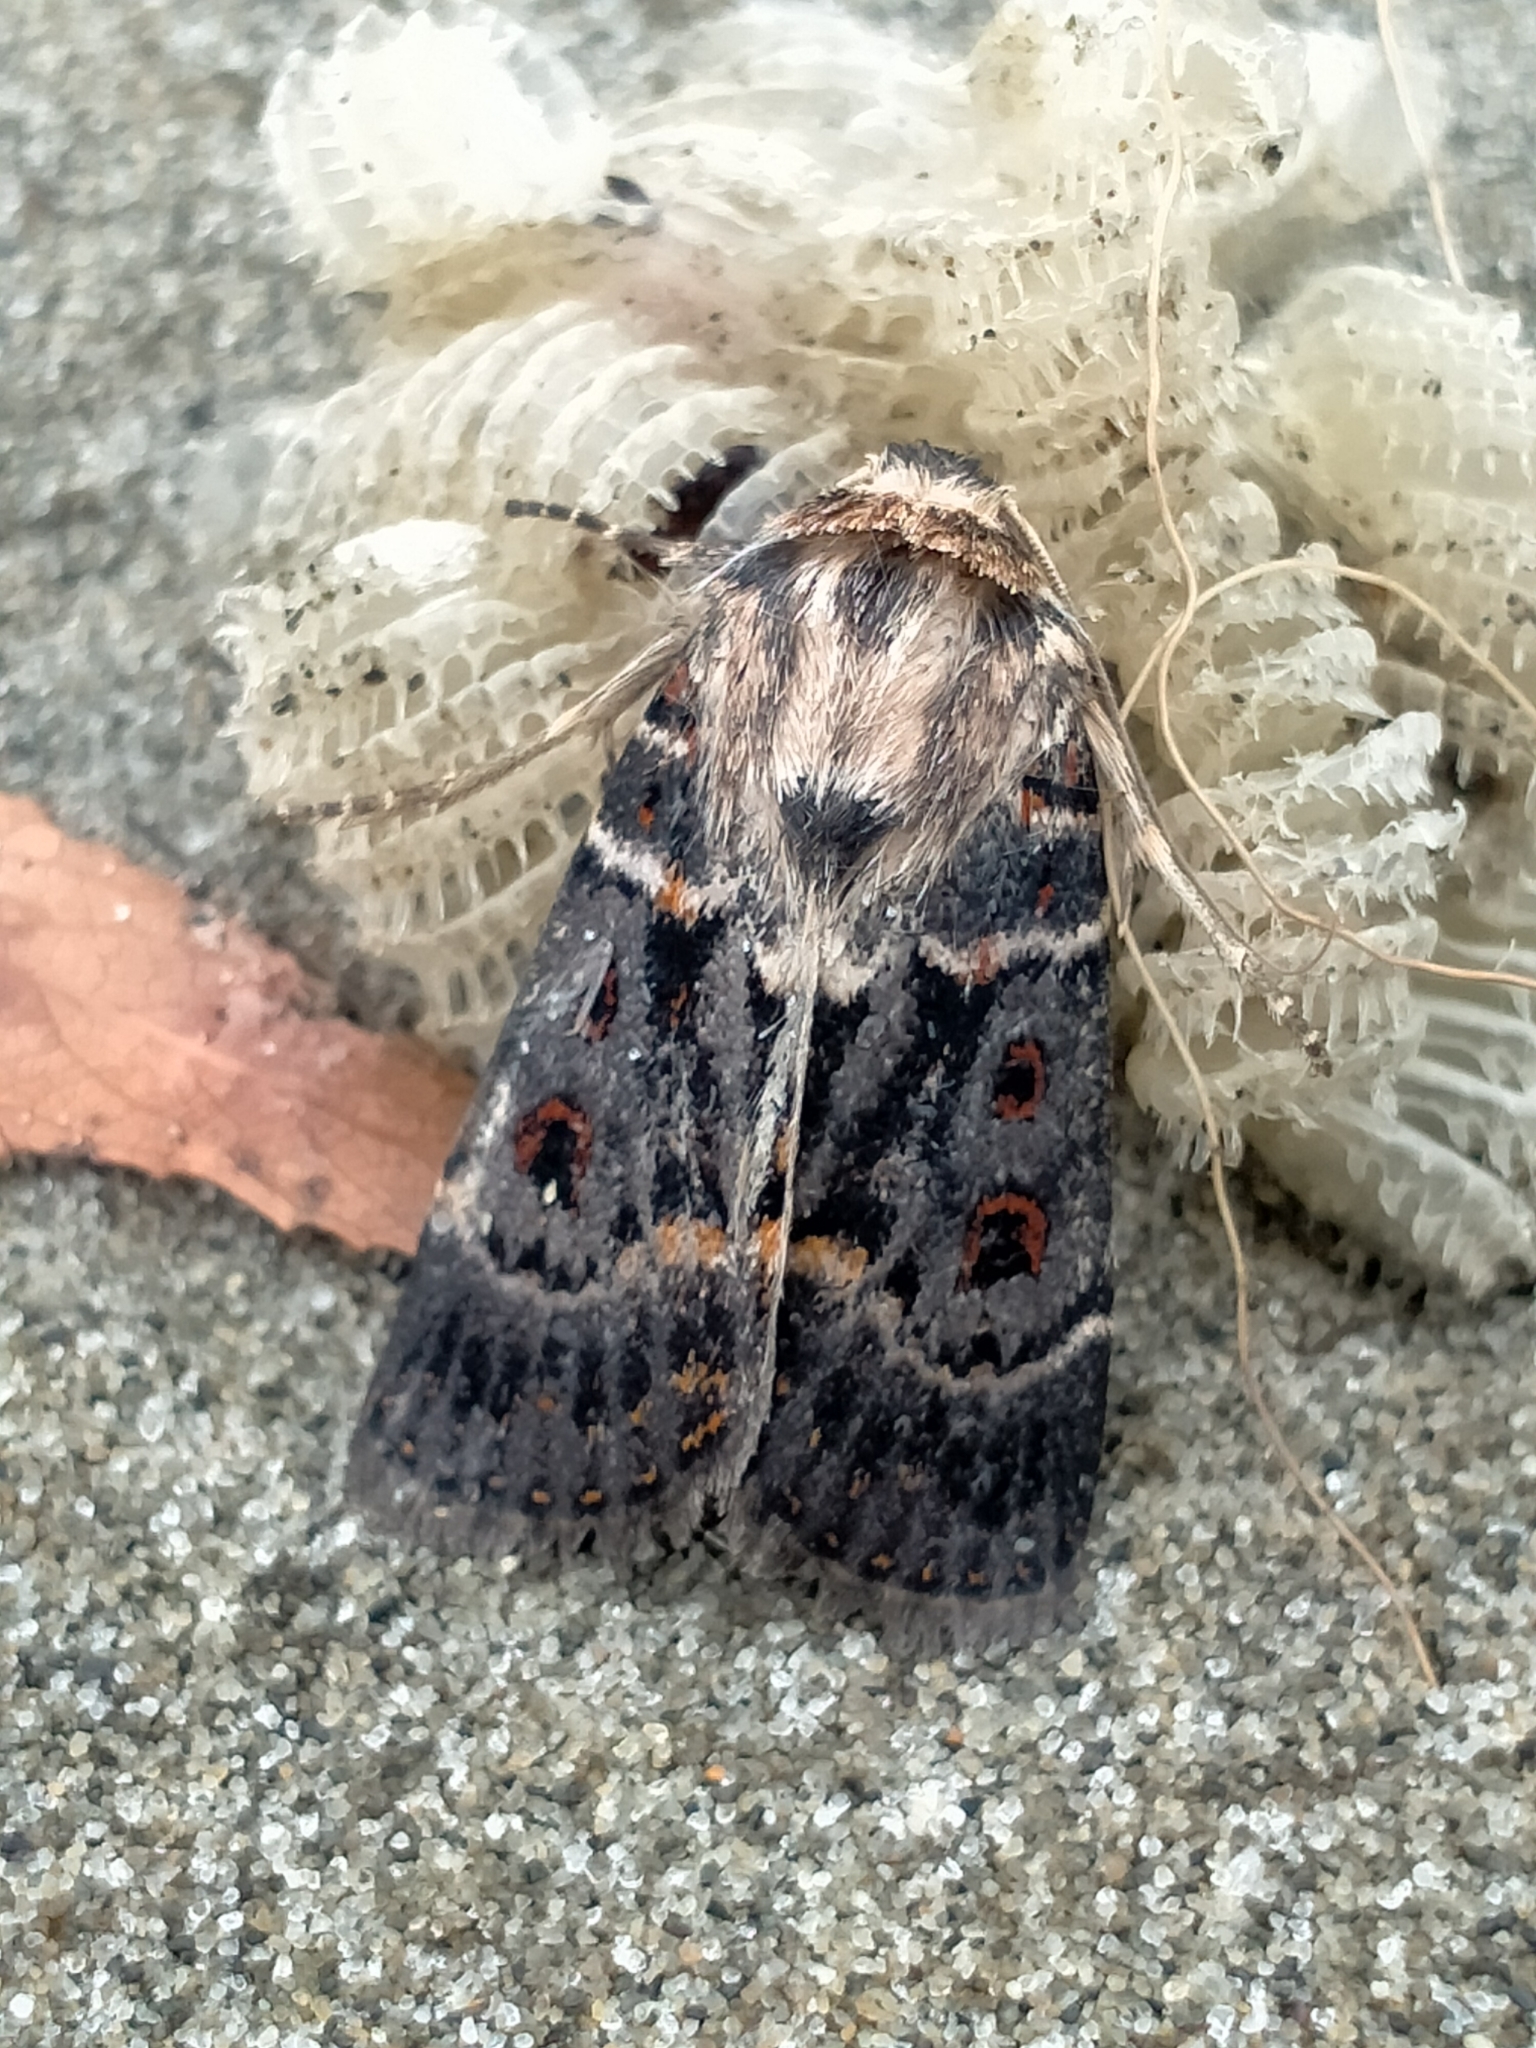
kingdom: Animalia
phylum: Arthropoda
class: Insecta
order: Lepidoptera
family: Noctuidae
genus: Proteuxoa
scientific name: Proteuxoa sanguinipuncta
